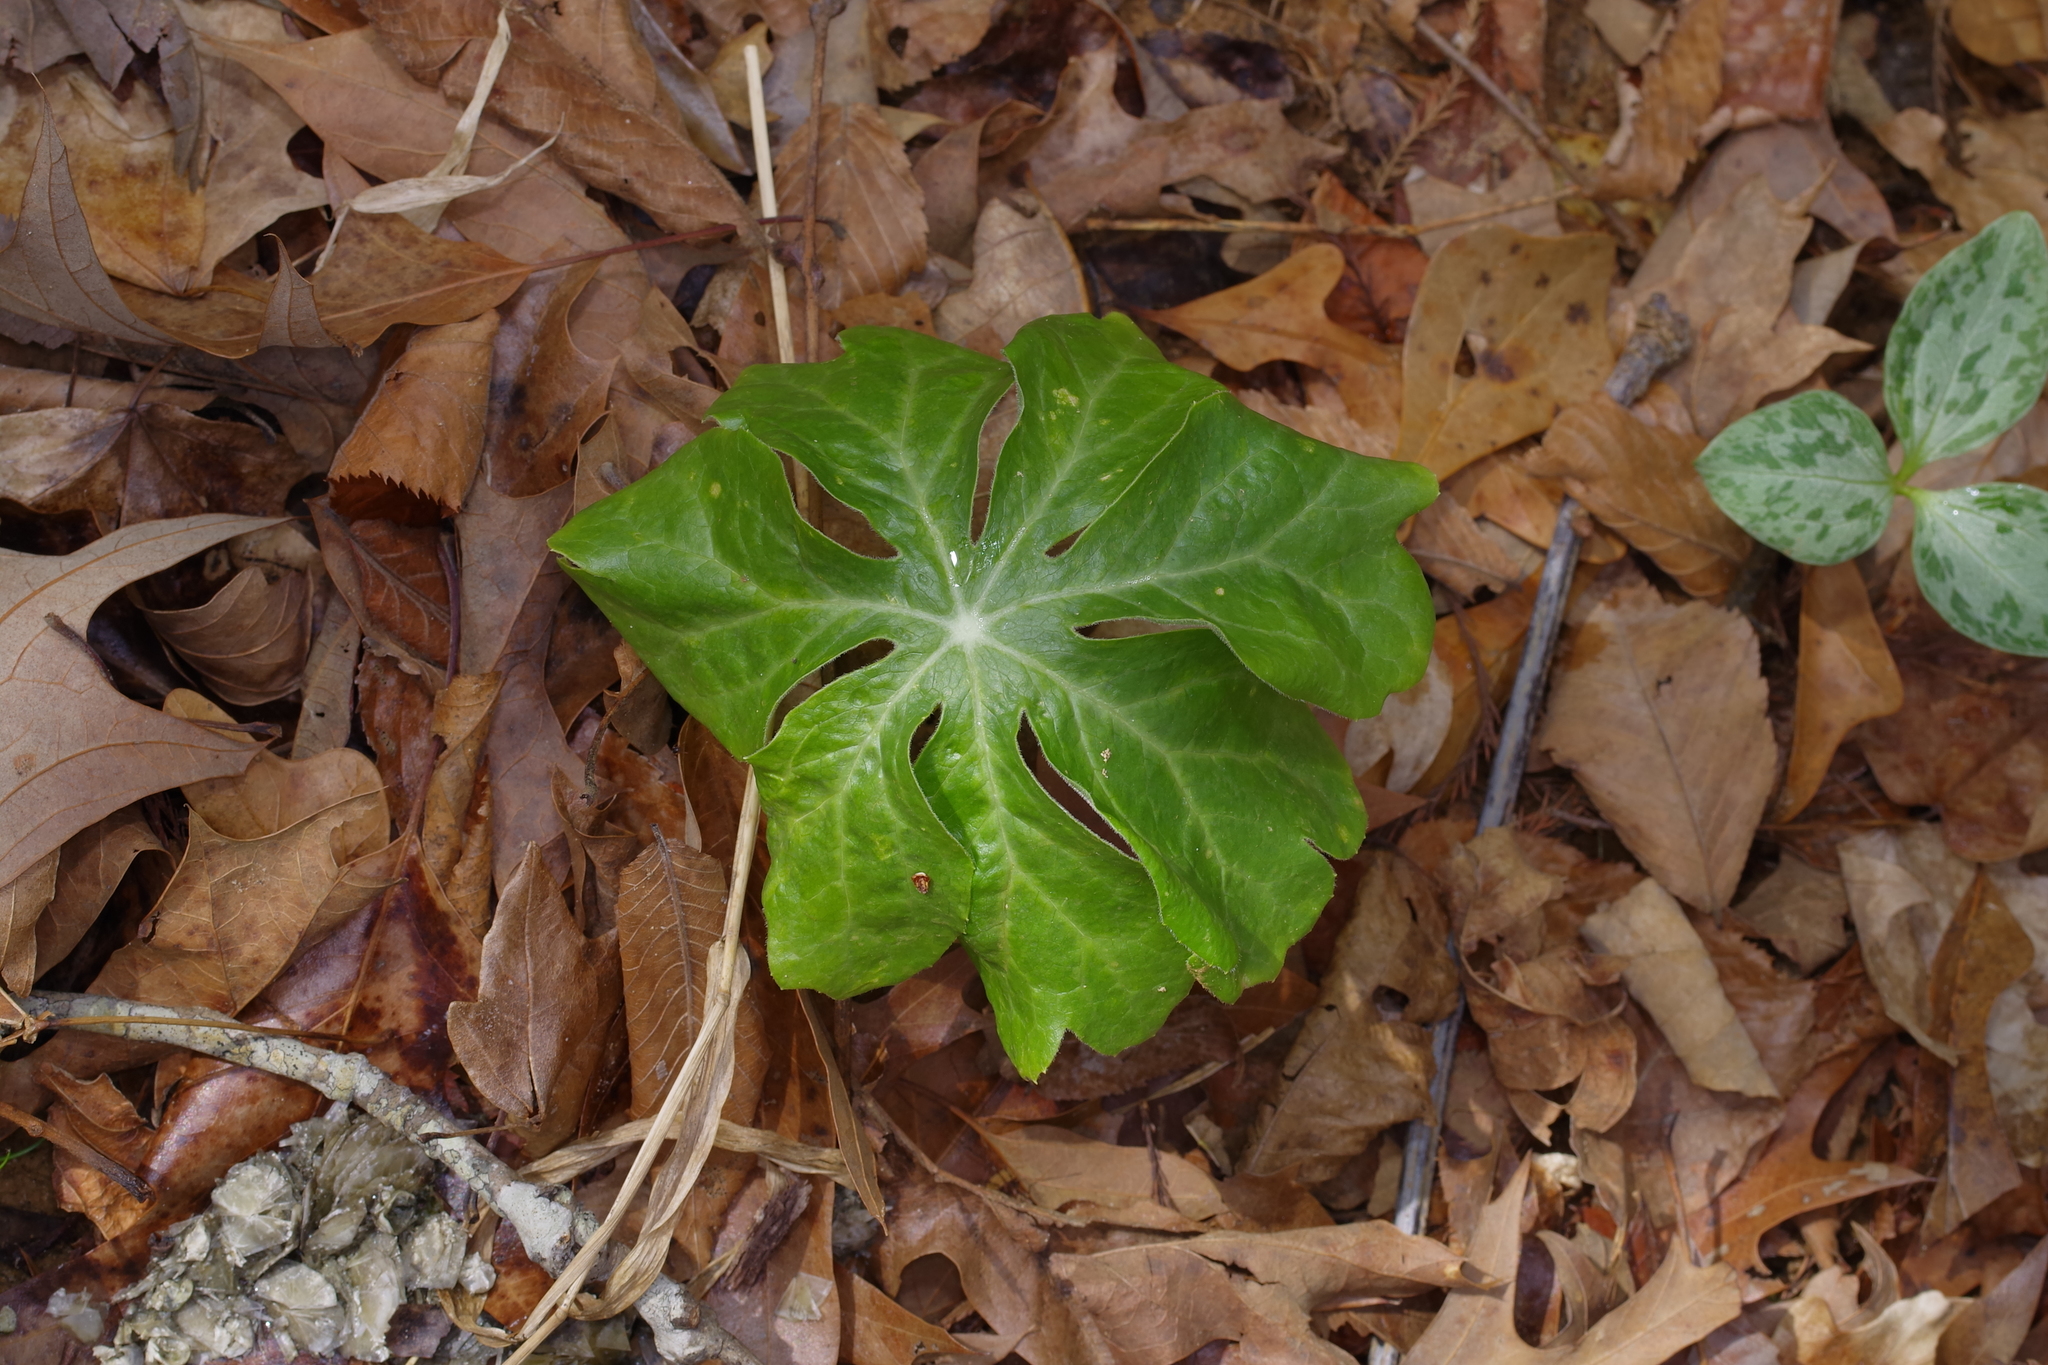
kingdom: Plantae
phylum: Tracheophyta
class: Magnoliopsida
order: Ranunculales
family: Berberidaceae
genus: Podophyllum
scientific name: Podophyllum peltatum
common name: Wild mandrake
